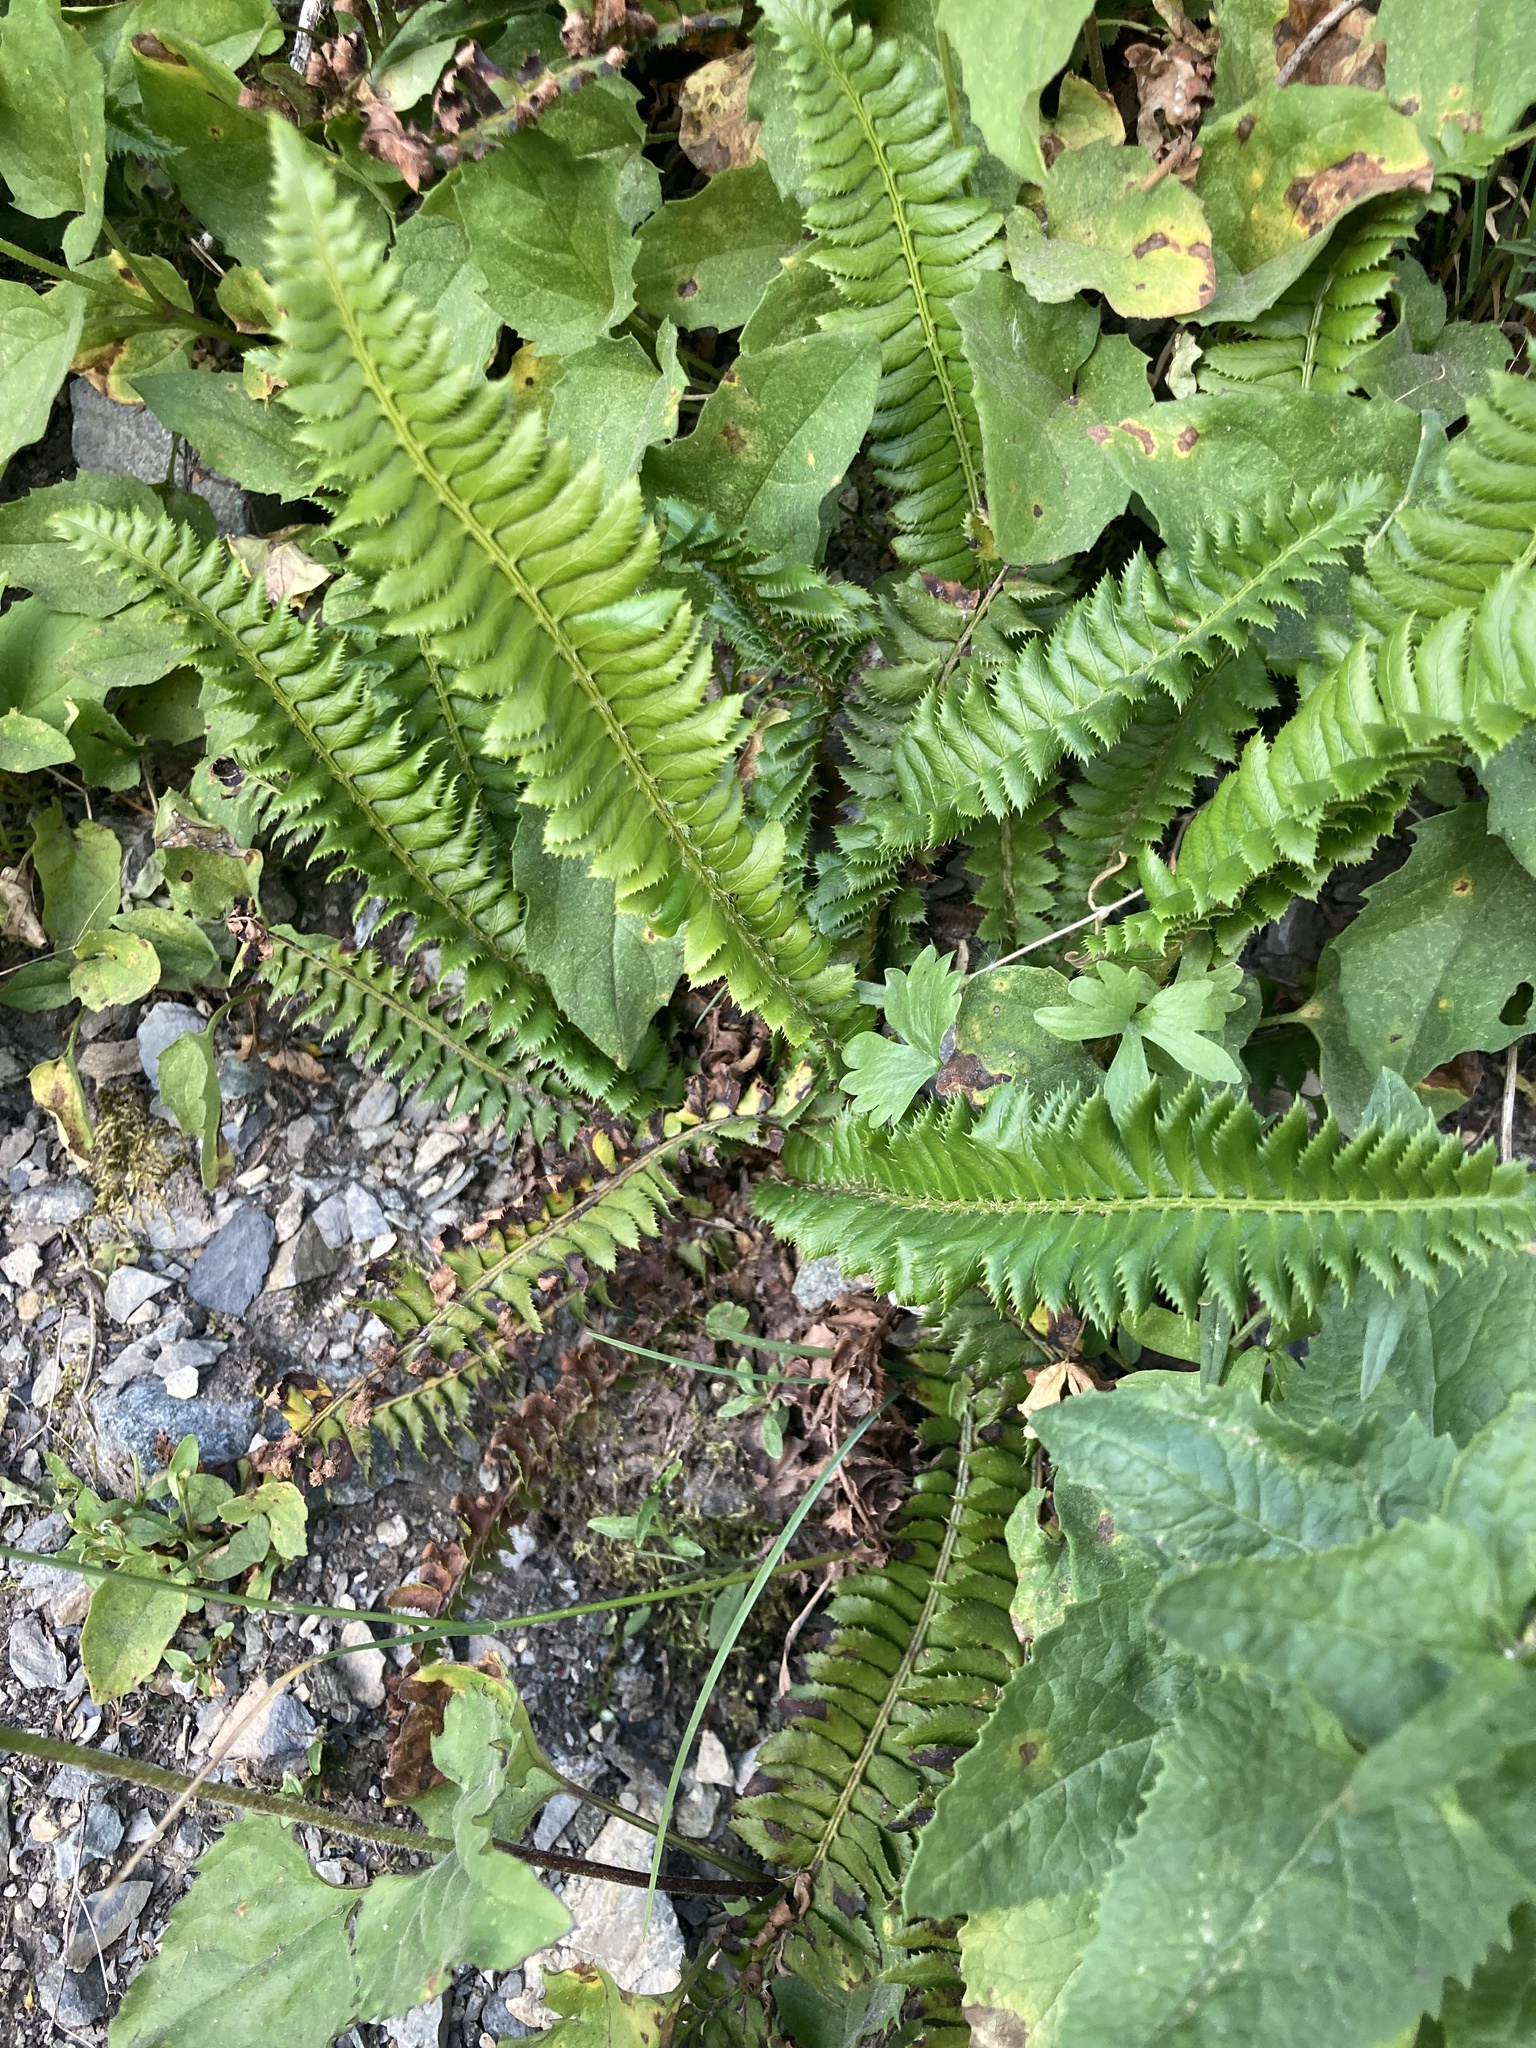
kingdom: Plantae
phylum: Tracheophyta
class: Polypodiopsida
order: Polypodiales
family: Dryopteridaceae
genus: Polystichum
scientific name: Polystichum lonchitis
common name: Holly fern
